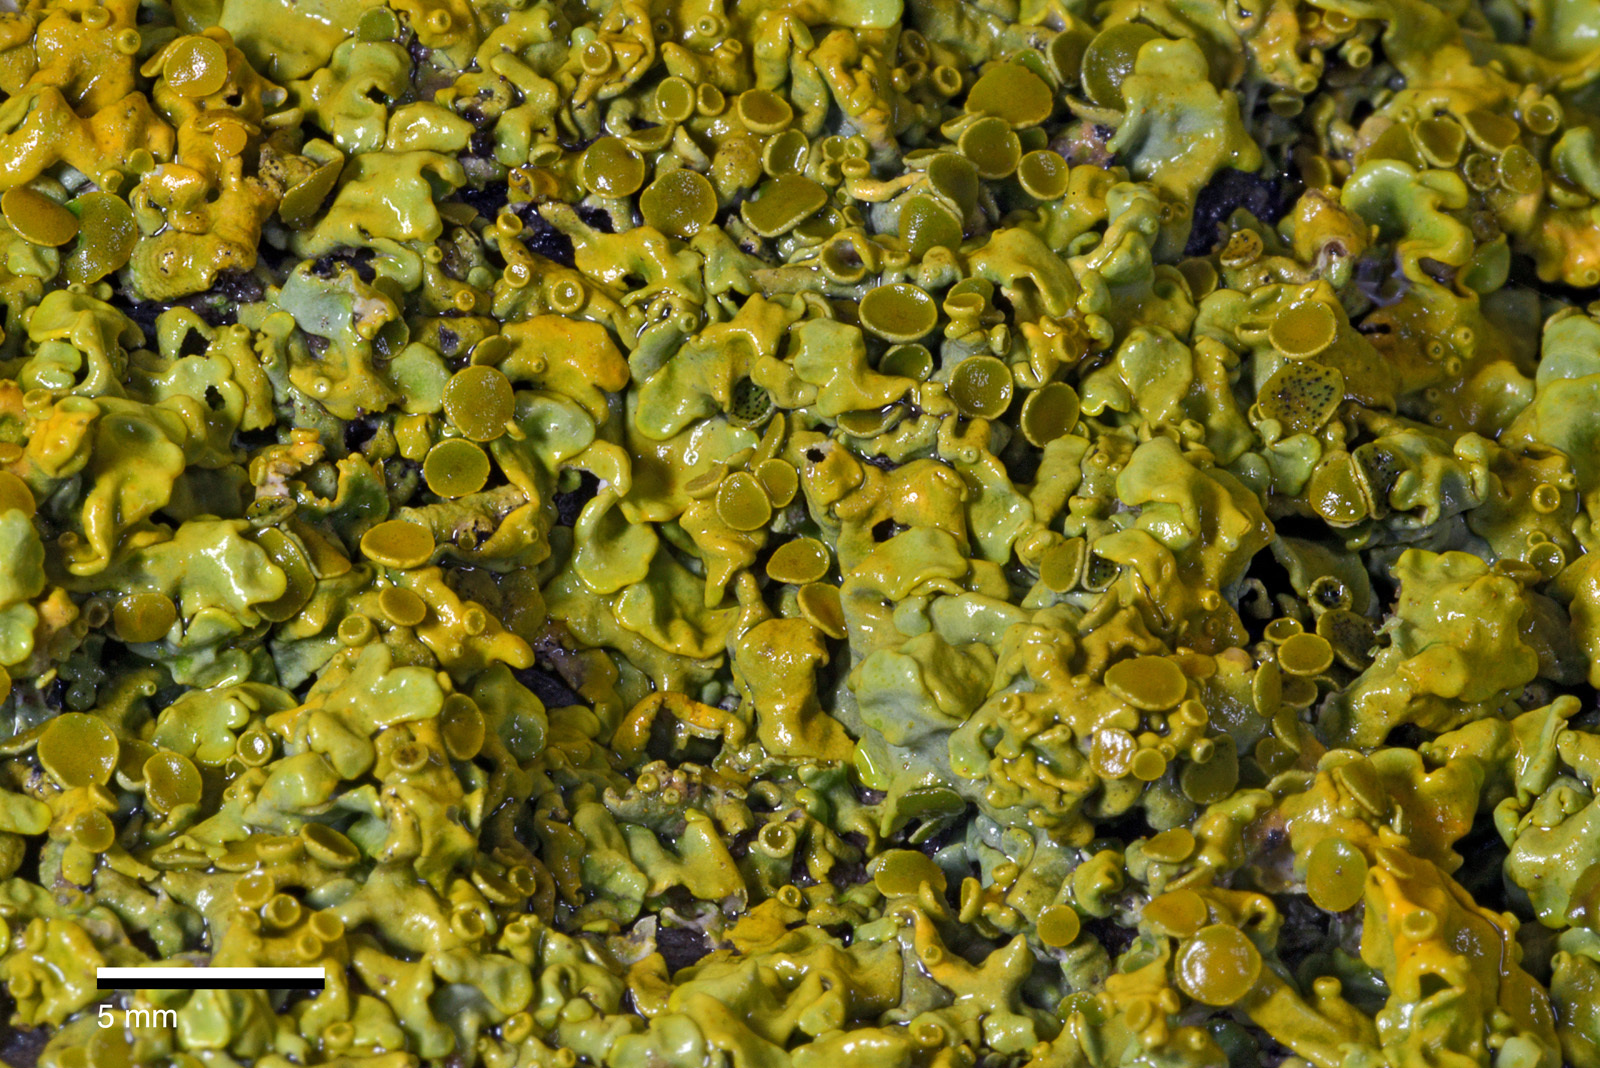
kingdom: Fungi
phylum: Ascomycota
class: Lecanoromycetes
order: Teloschistales
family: Teloschistaceae
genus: Dufourea
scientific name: Dufourea ligulata
